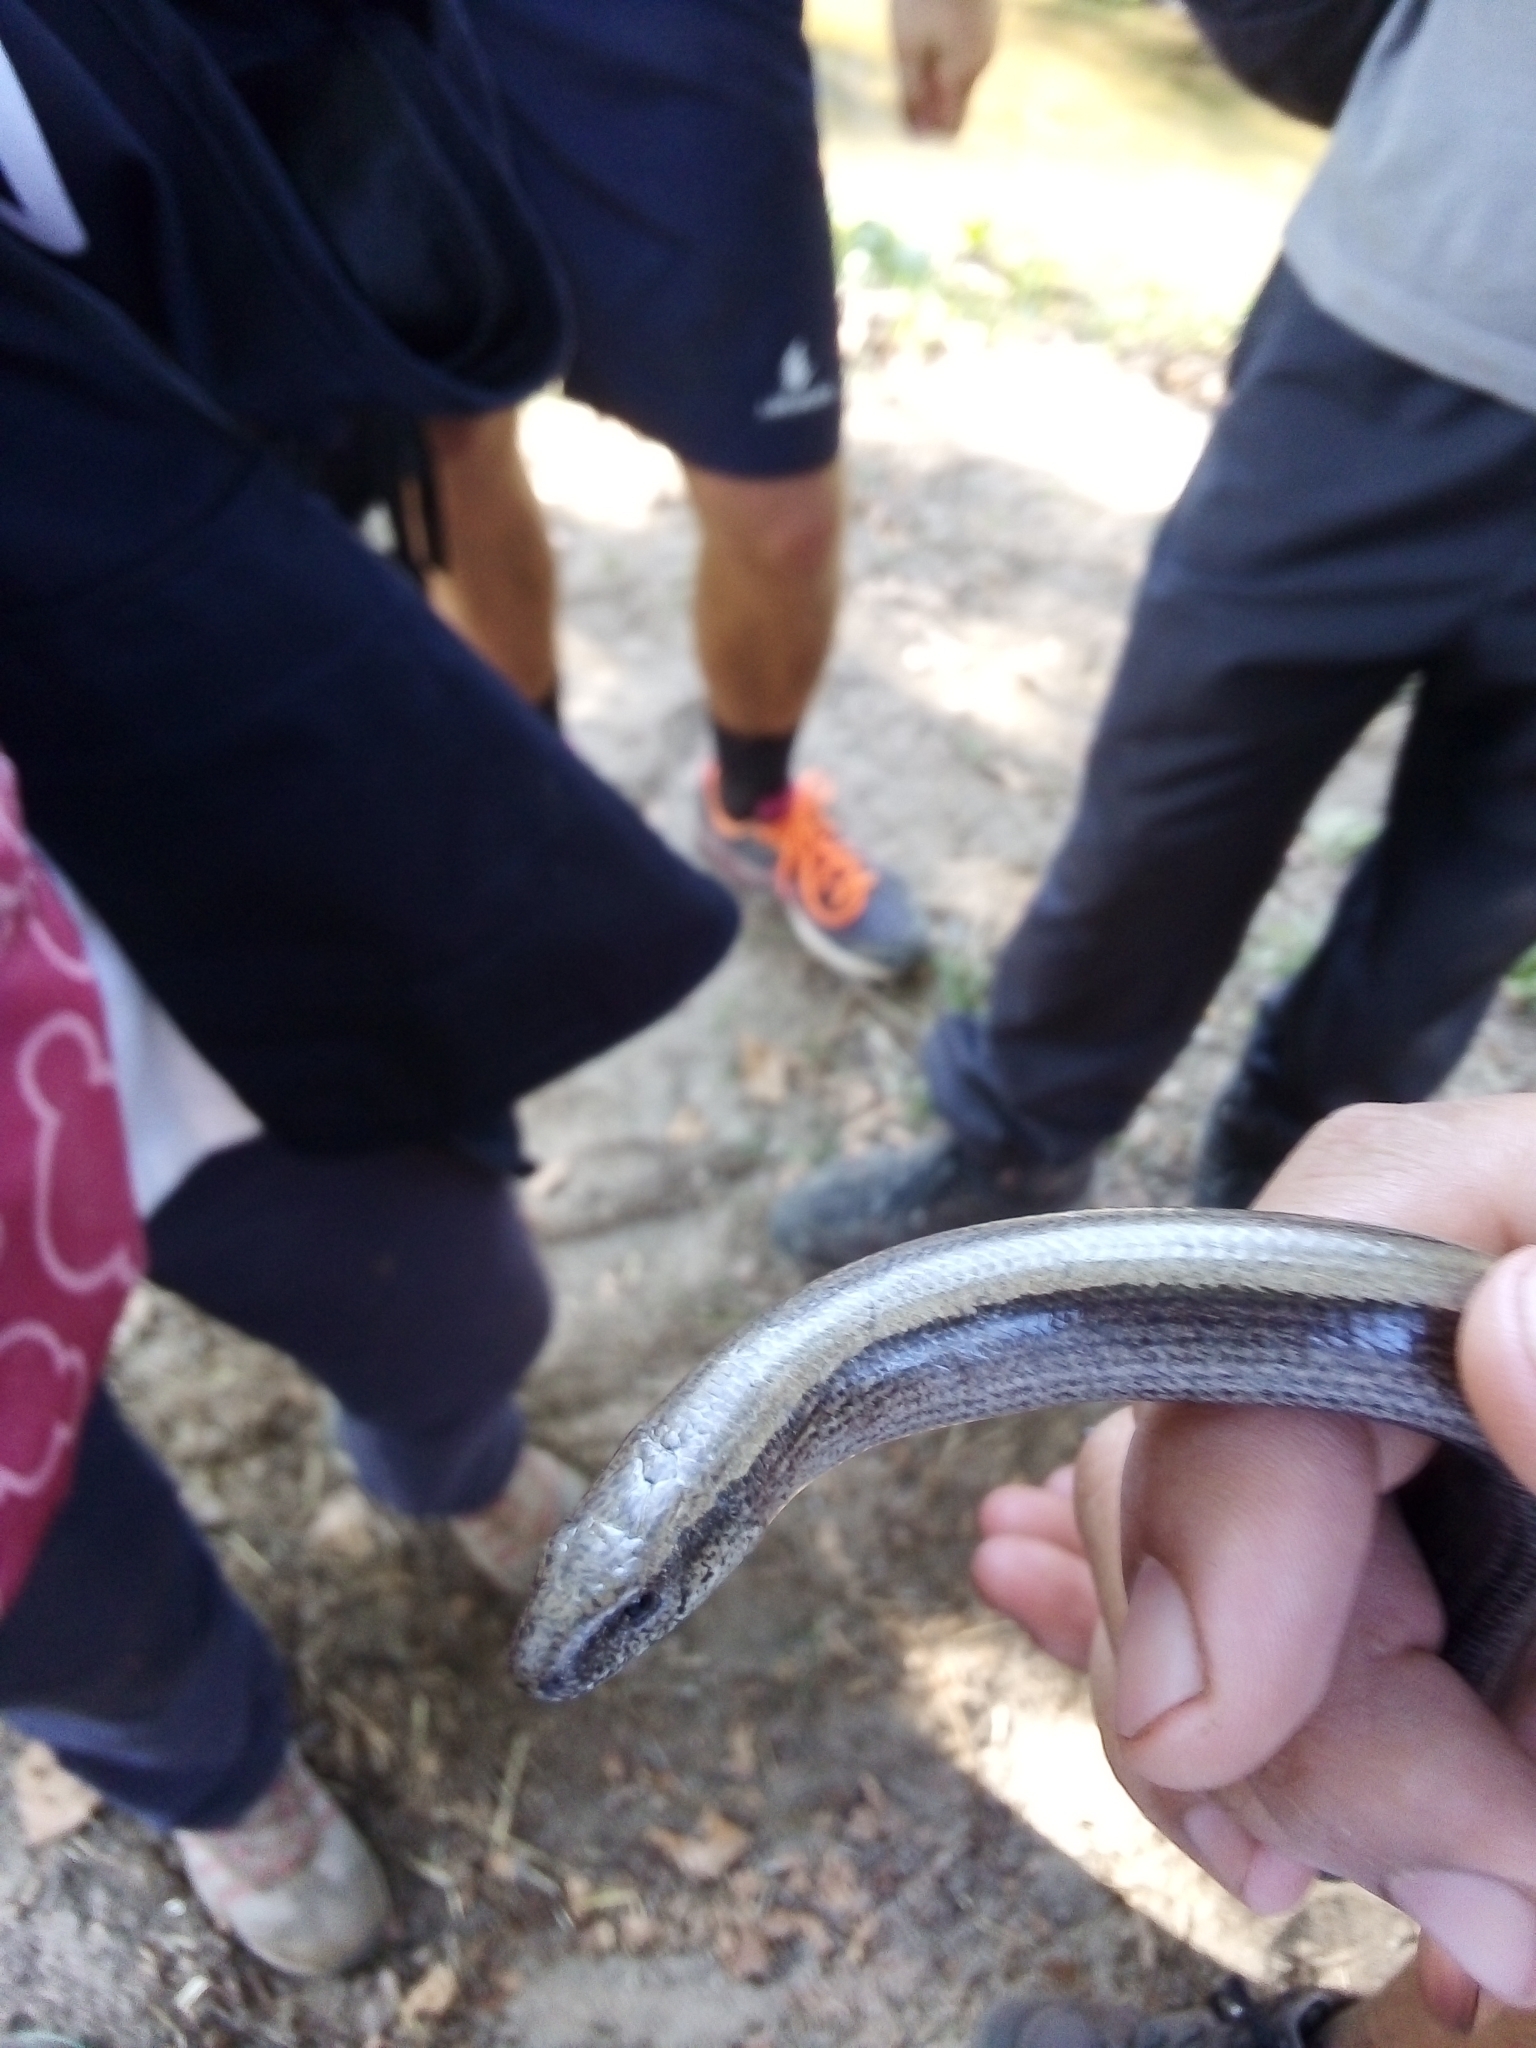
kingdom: Animalia
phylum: Chordata
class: Squamata
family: Anguidae
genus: Anguis
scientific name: Anguis fragilis
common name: Slow worm
